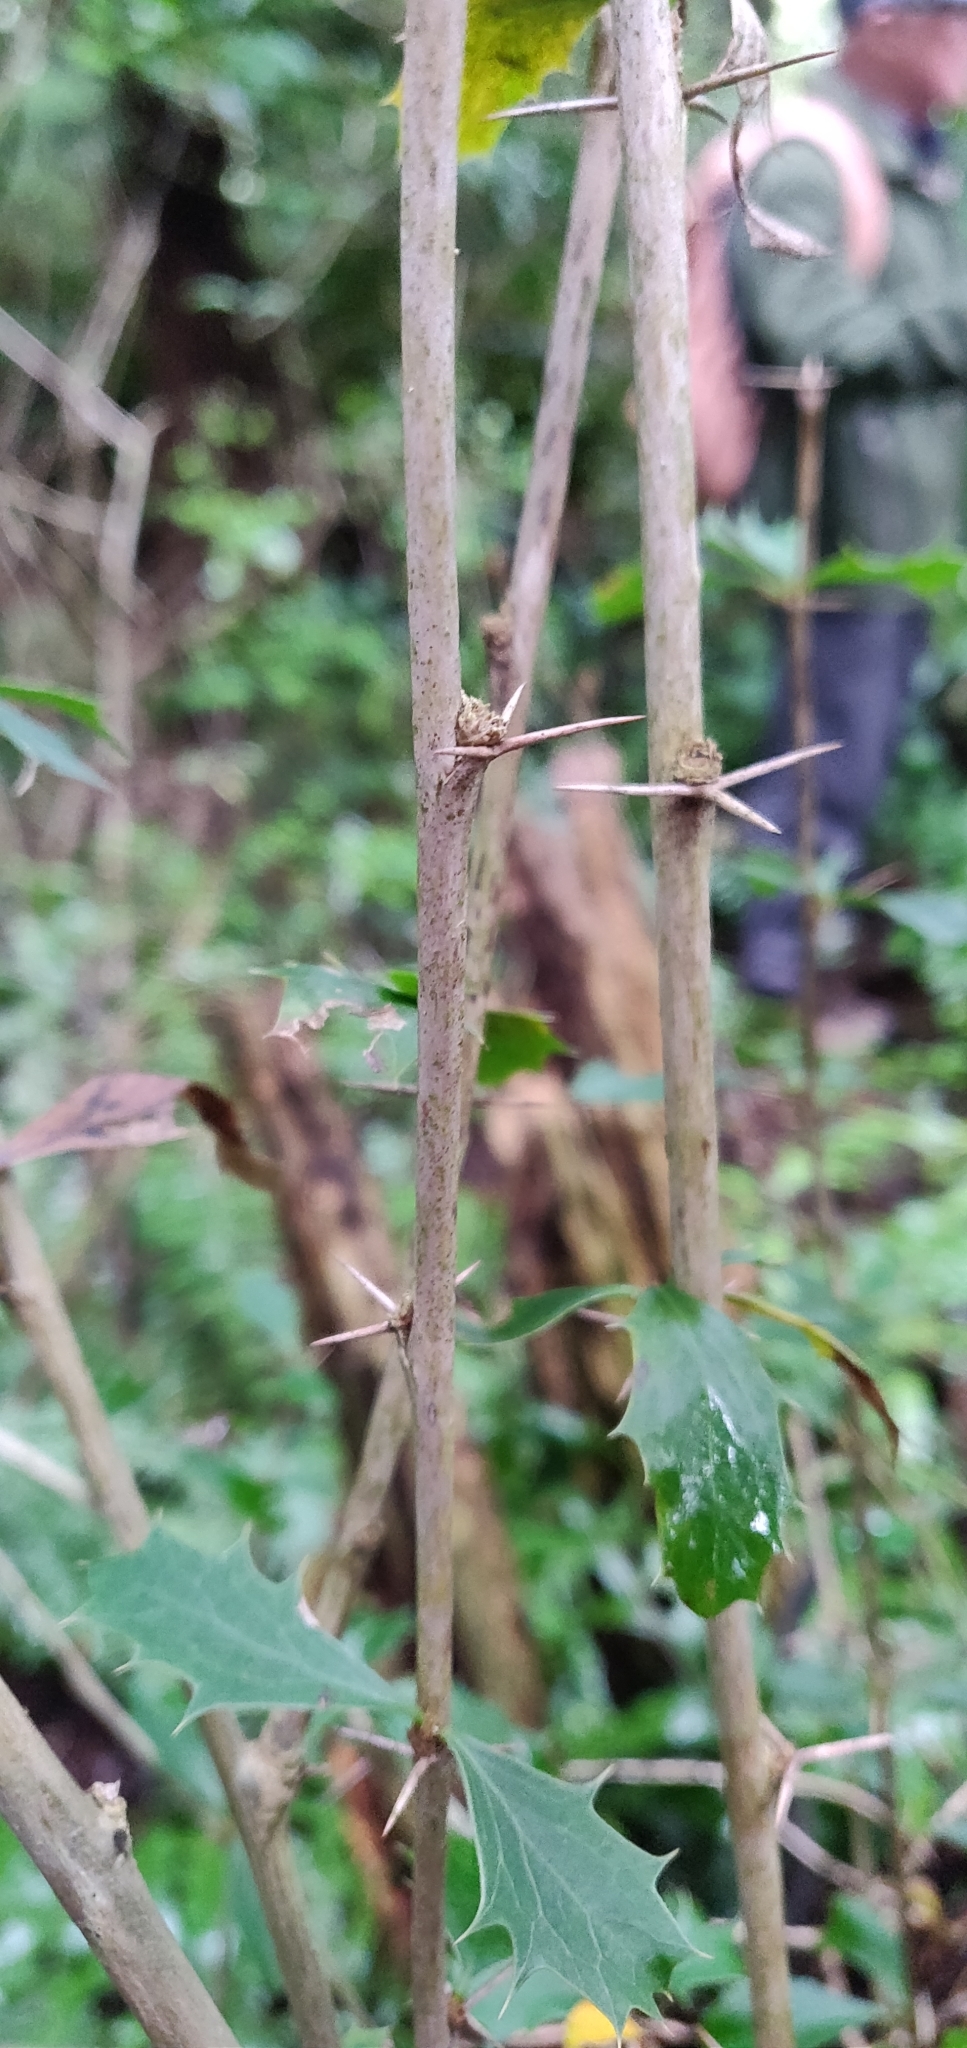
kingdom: Plantae
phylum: Tracheophyta
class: Magnoliopsida
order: Ranunculales
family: Berberidaceae
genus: Berberis
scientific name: Berberis glaucocarpa
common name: Great barberry
